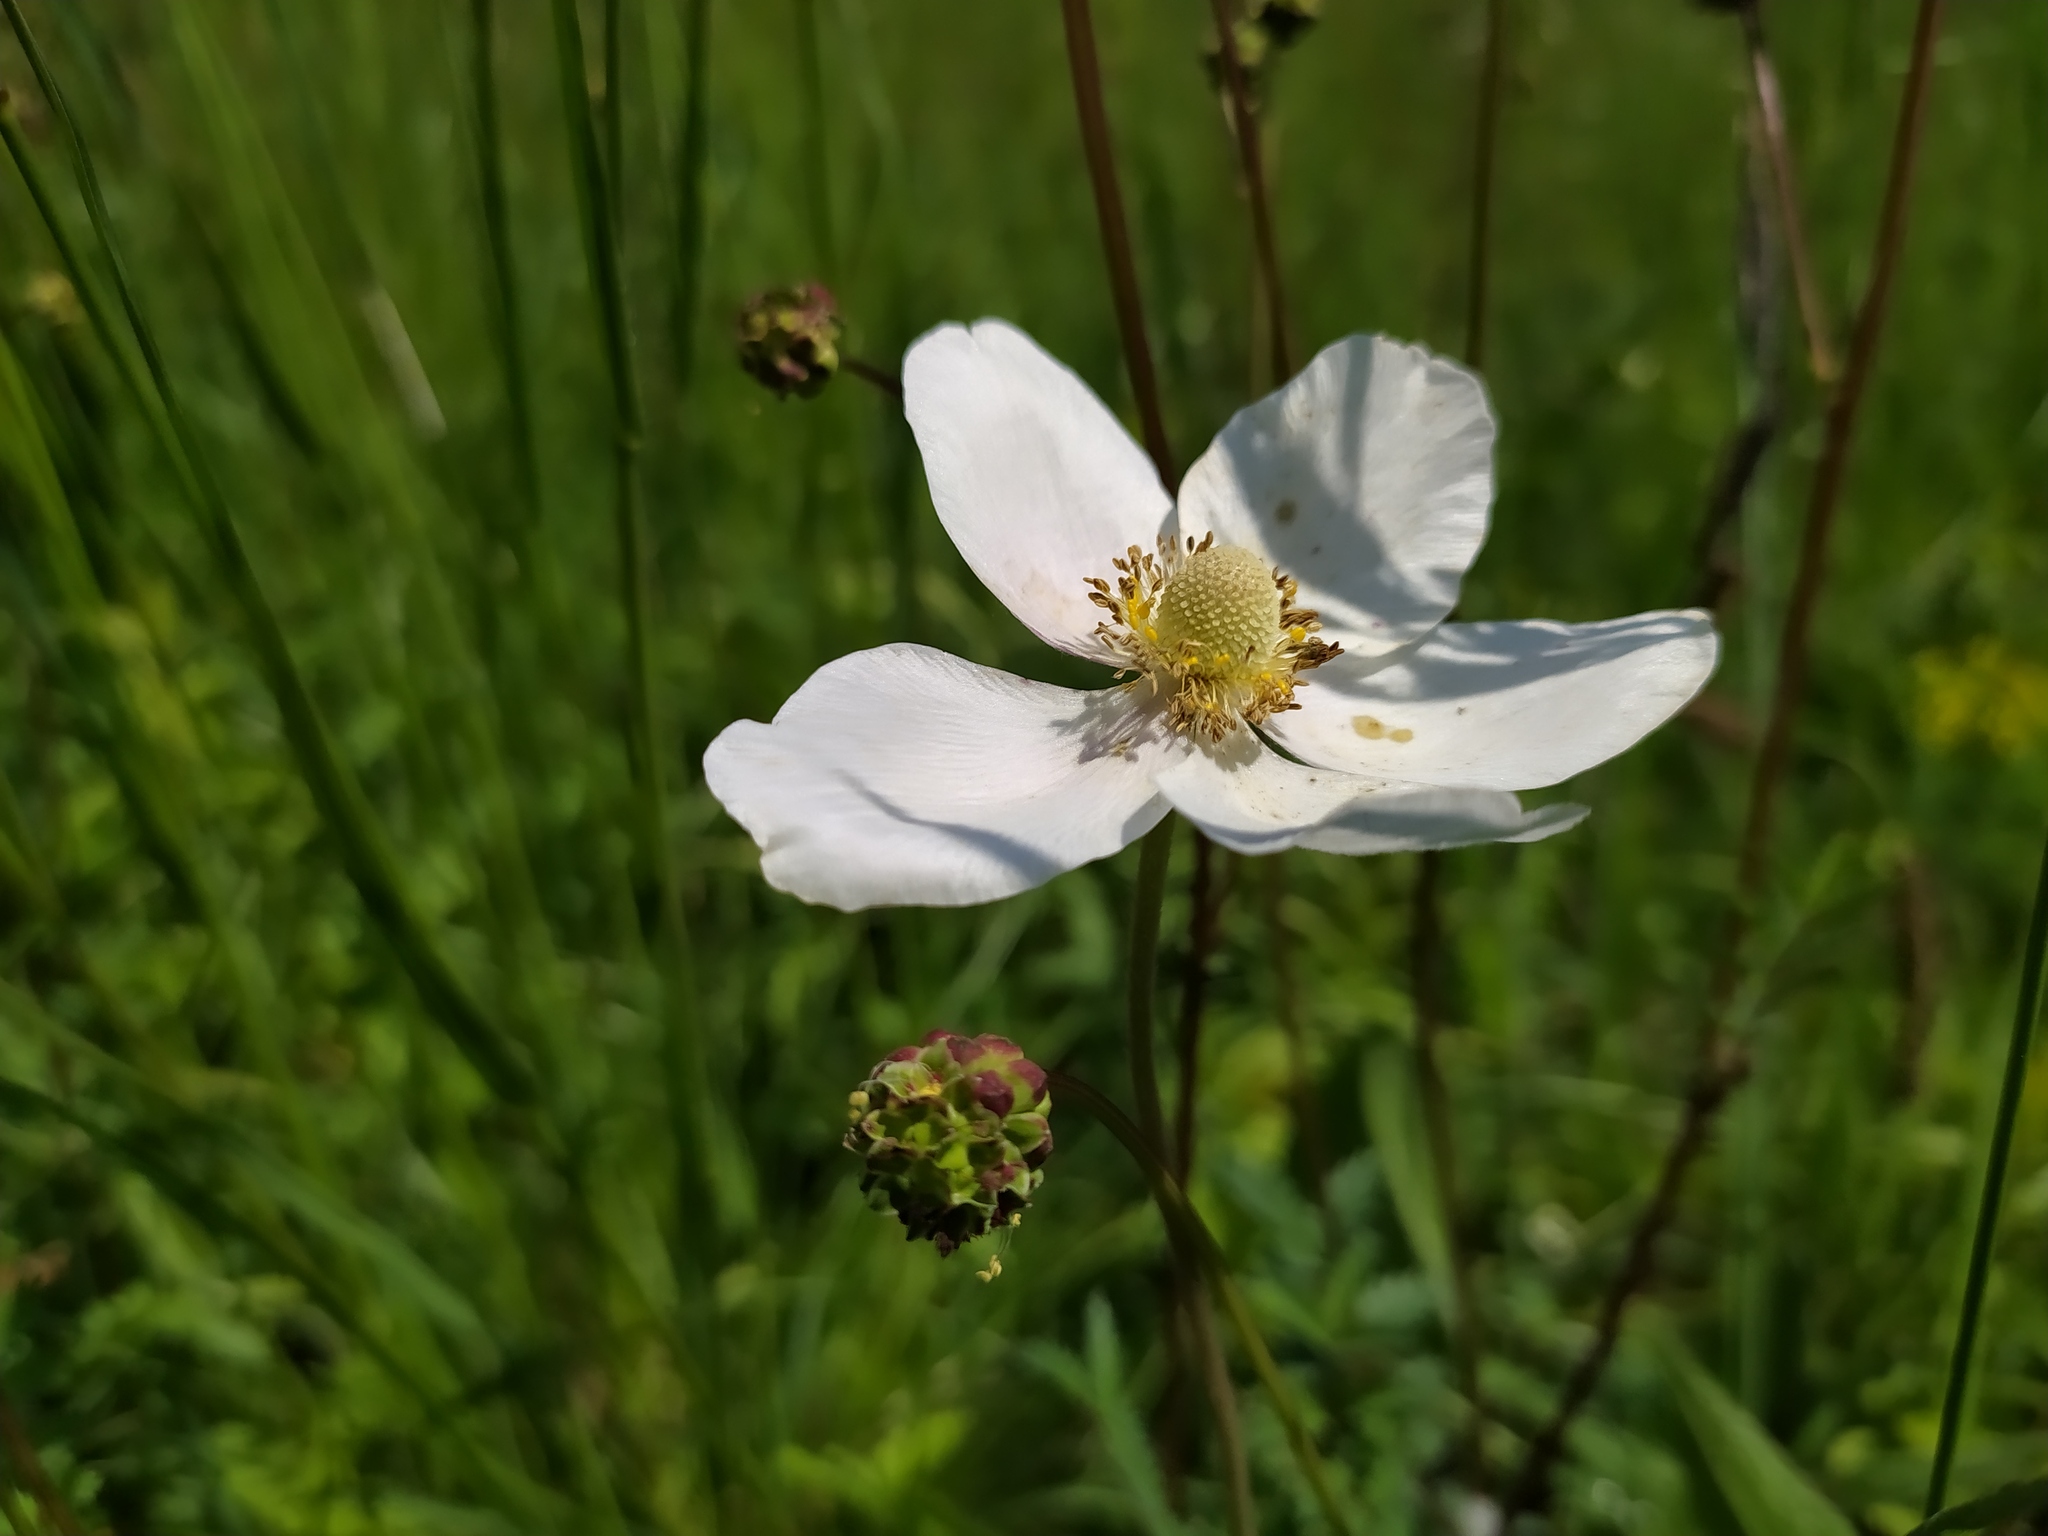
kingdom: Plantae
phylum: Tracheophyta
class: Magnoliopsida
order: Ranunculales
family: Ranunculaceae
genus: Anemone
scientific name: Anemone sylvestris
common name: Snowdrop anemone
